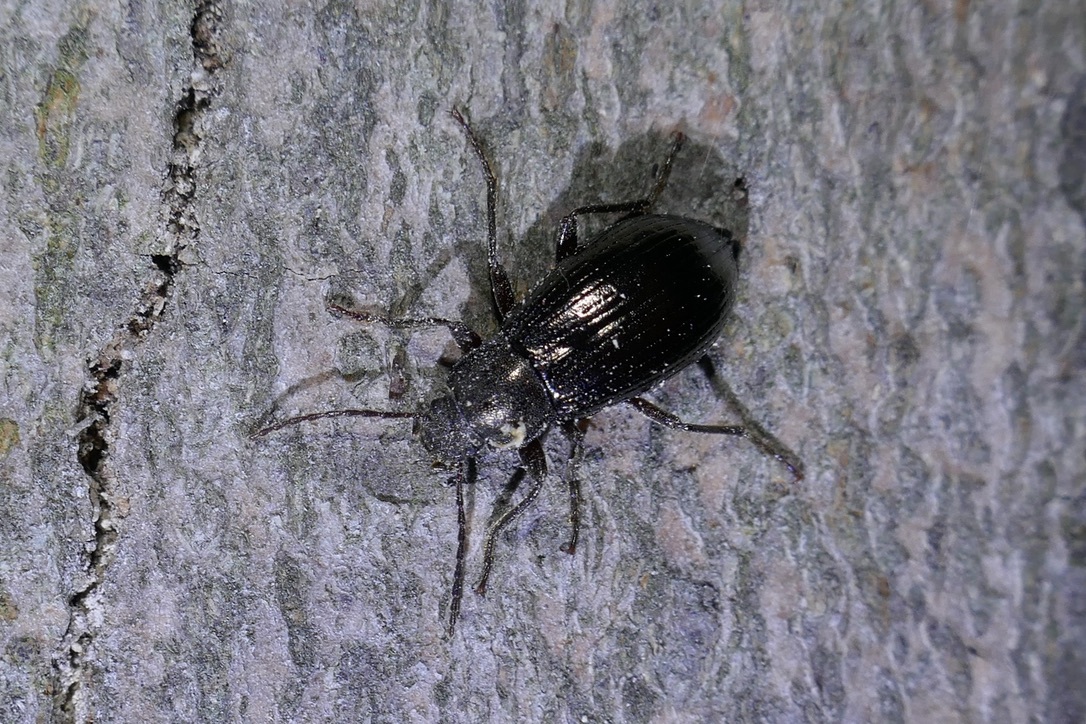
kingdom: Animalia
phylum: Arthropoda
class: Insecta
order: Coleoptera
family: Tenebrionidae
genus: Stenomax
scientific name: Stenomax aeneus
